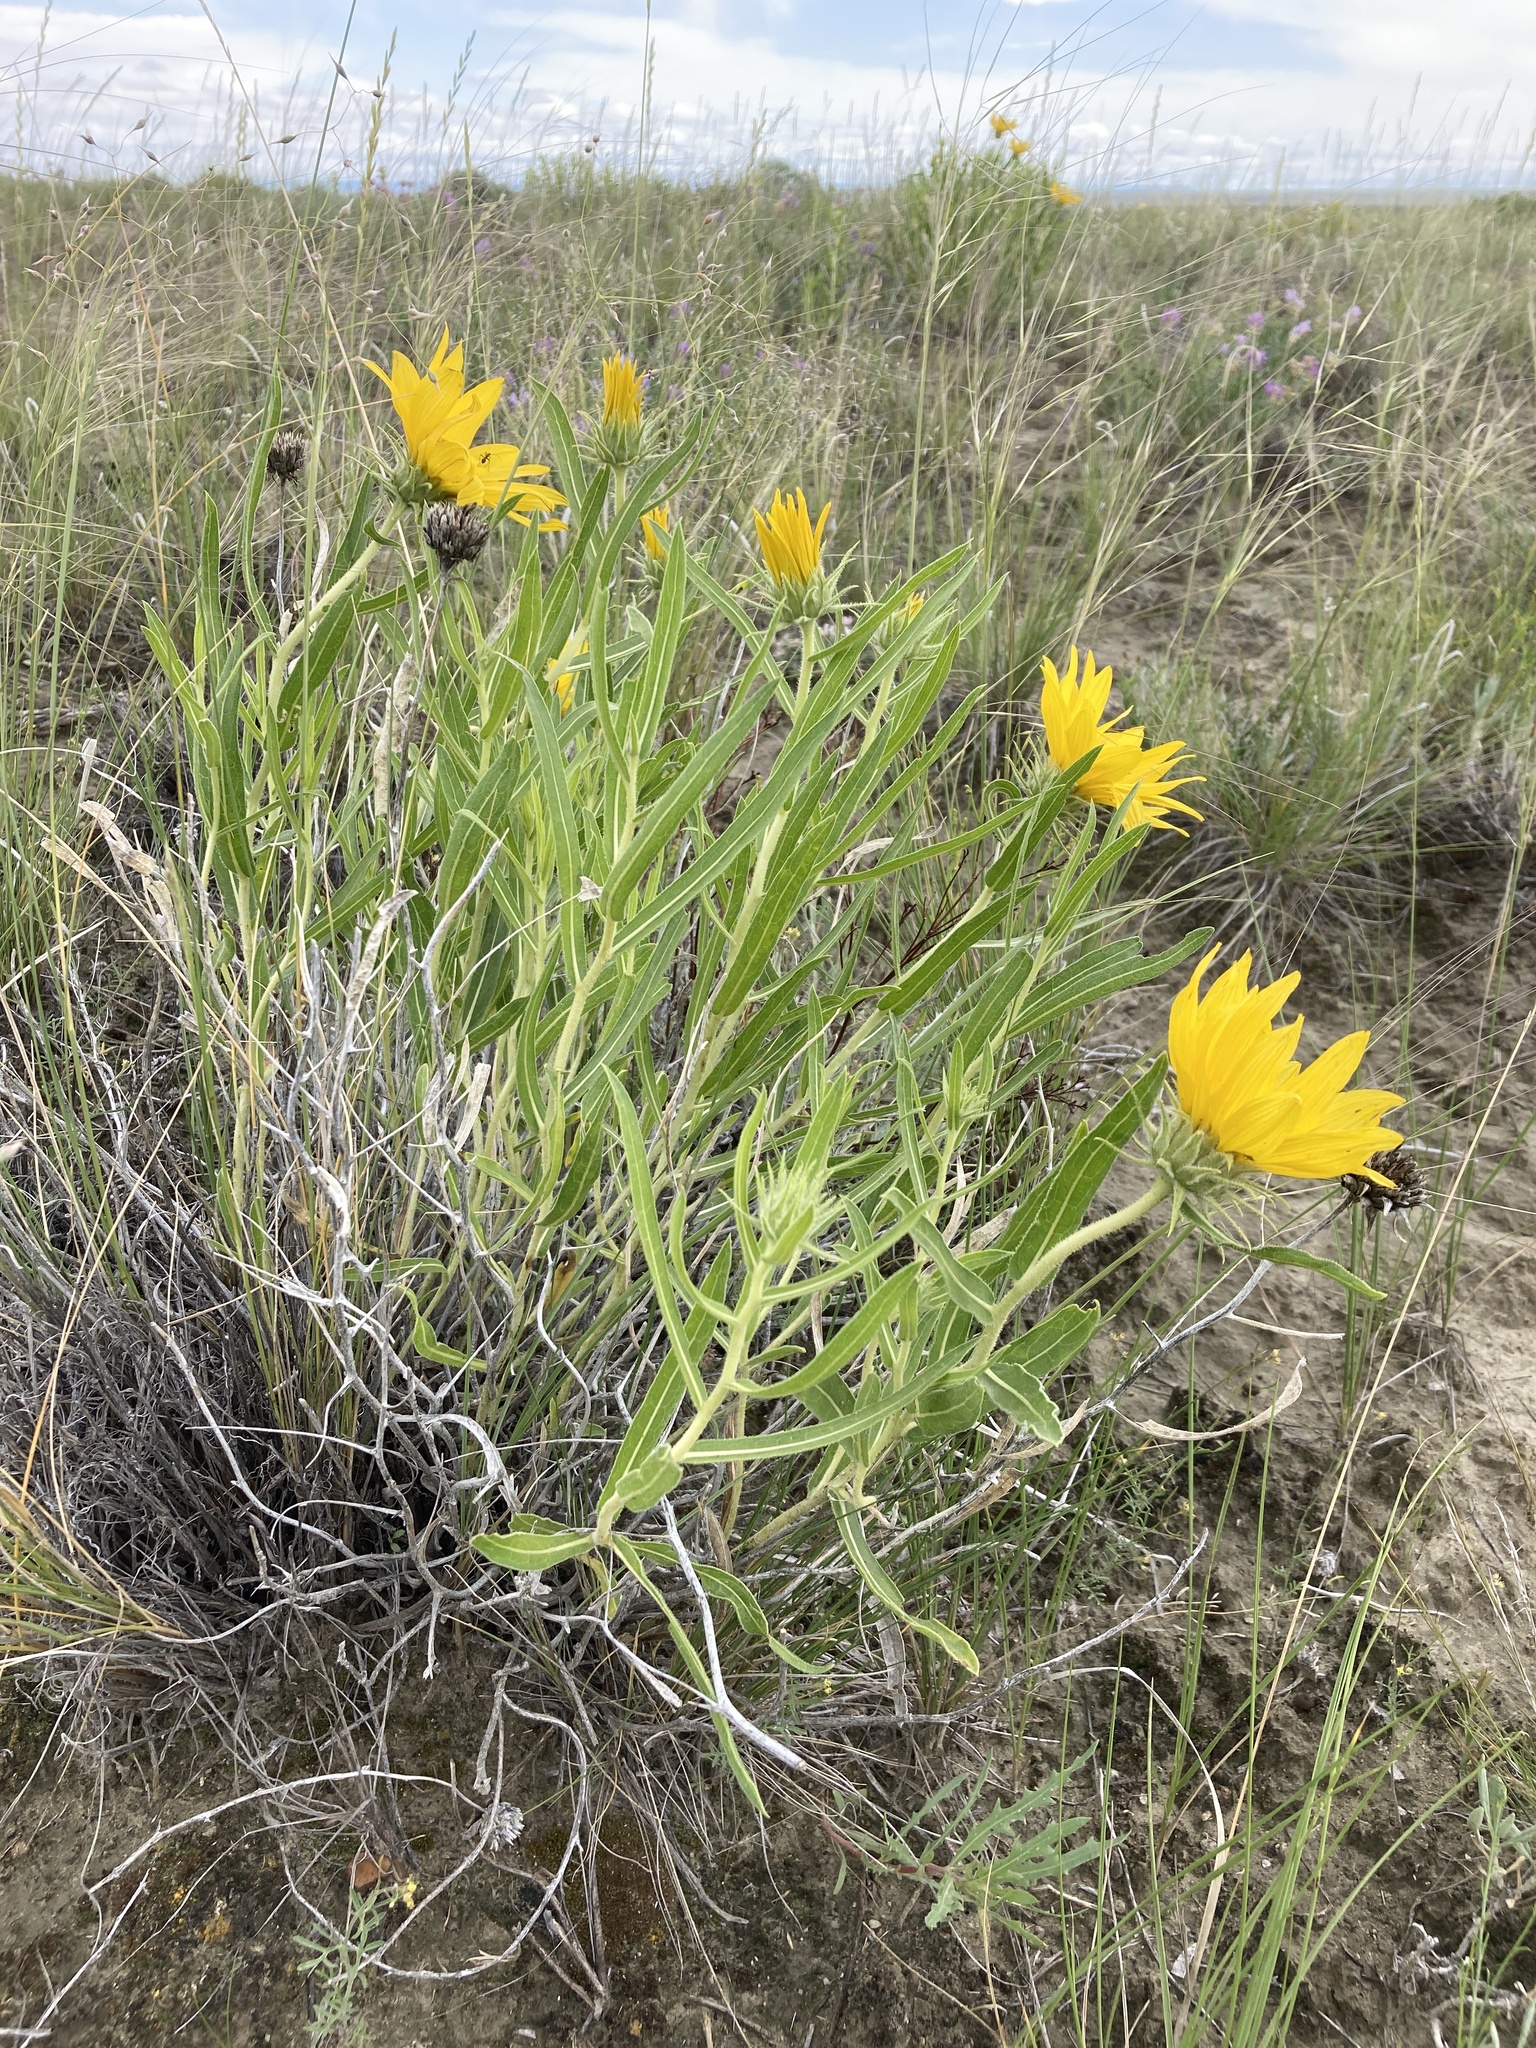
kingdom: Plantae
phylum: Tracheophyta
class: Magnoliopsida
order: Asterales
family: Asteraceae
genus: Scabrethia
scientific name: Scabrethia scabra
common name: Rough mules's-ears
